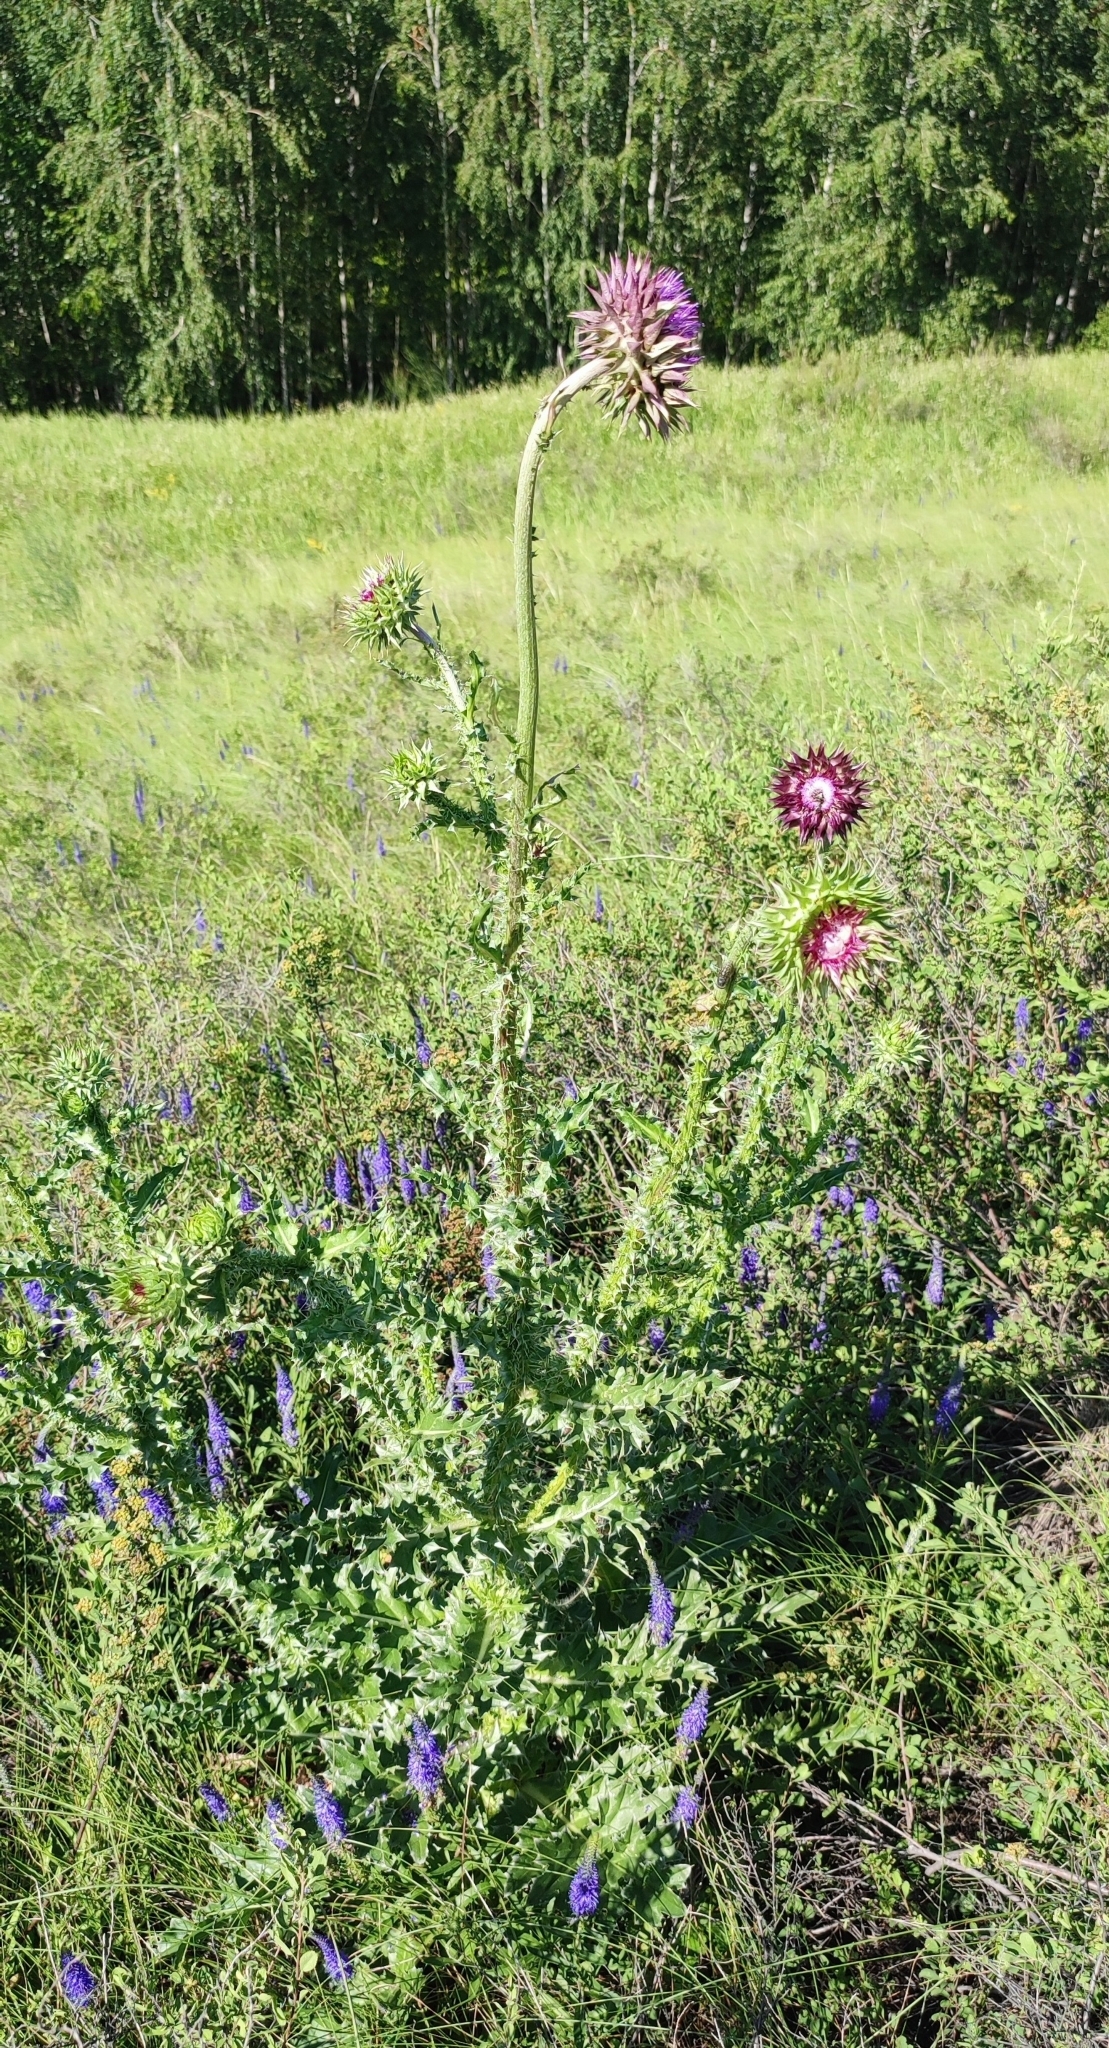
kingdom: Plantae
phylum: Tracheophyta
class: Magnoliopsida
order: Asterales
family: Asteraceae
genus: Carduus
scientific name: Carduus nutans
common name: Musk thistle
